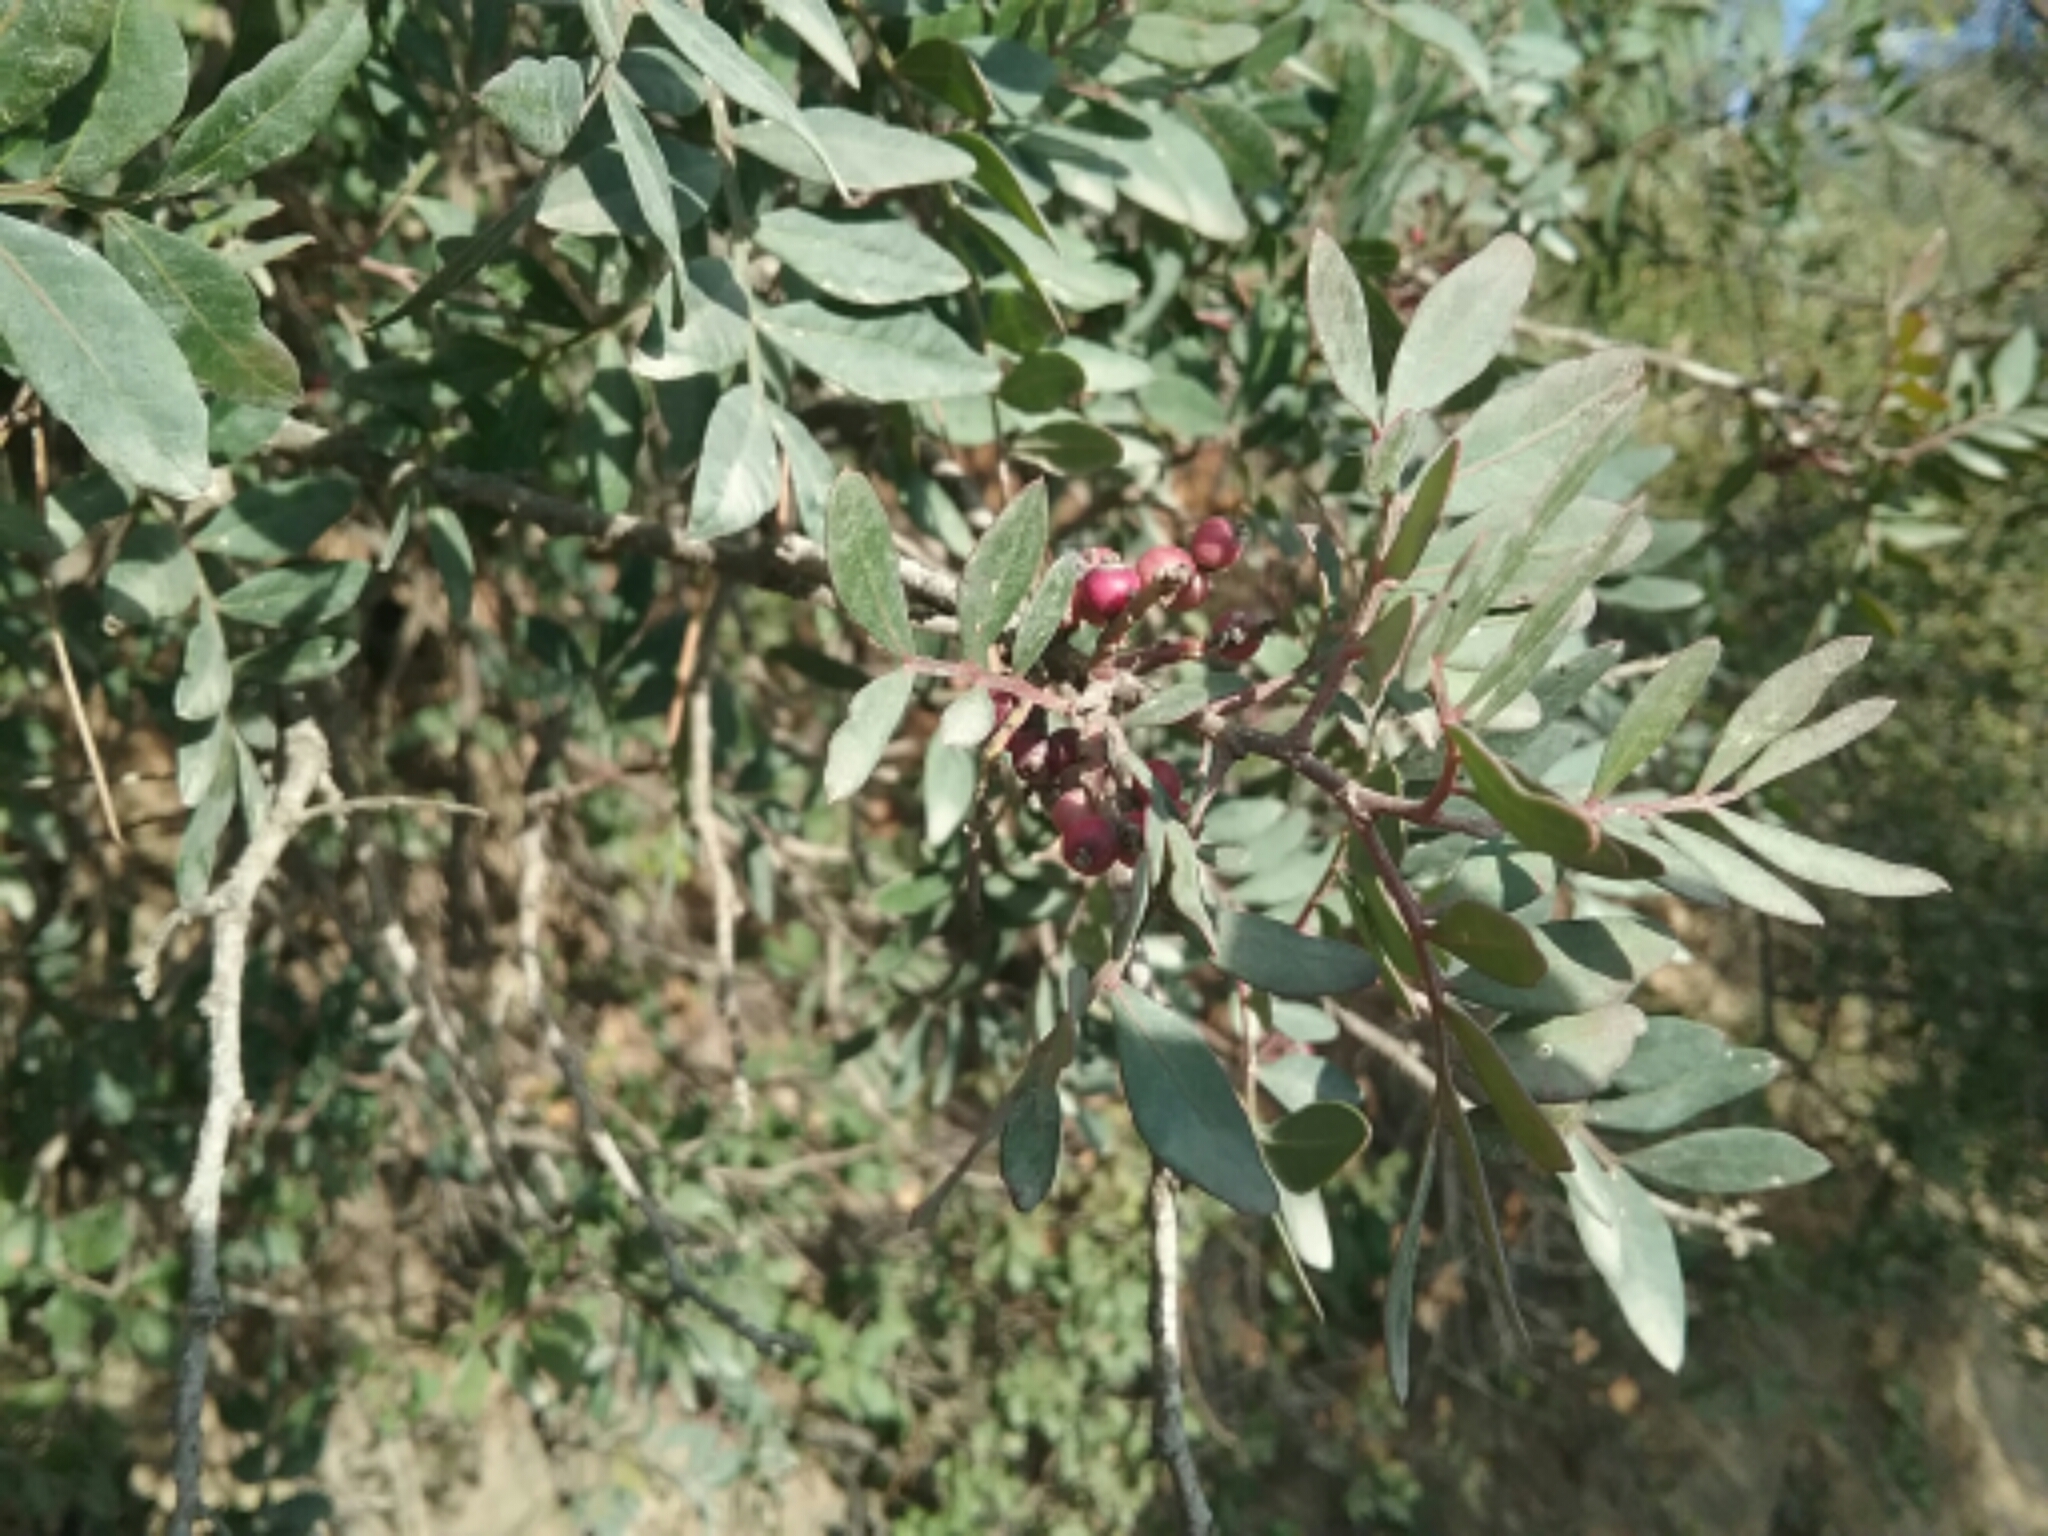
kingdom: Plantae
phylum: Tracheophyta
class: Magnoliopsida
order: Sapindales
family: Anacardiaceae
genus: Pistacia
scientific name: Pistacia lentiscus
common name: Lentisk
